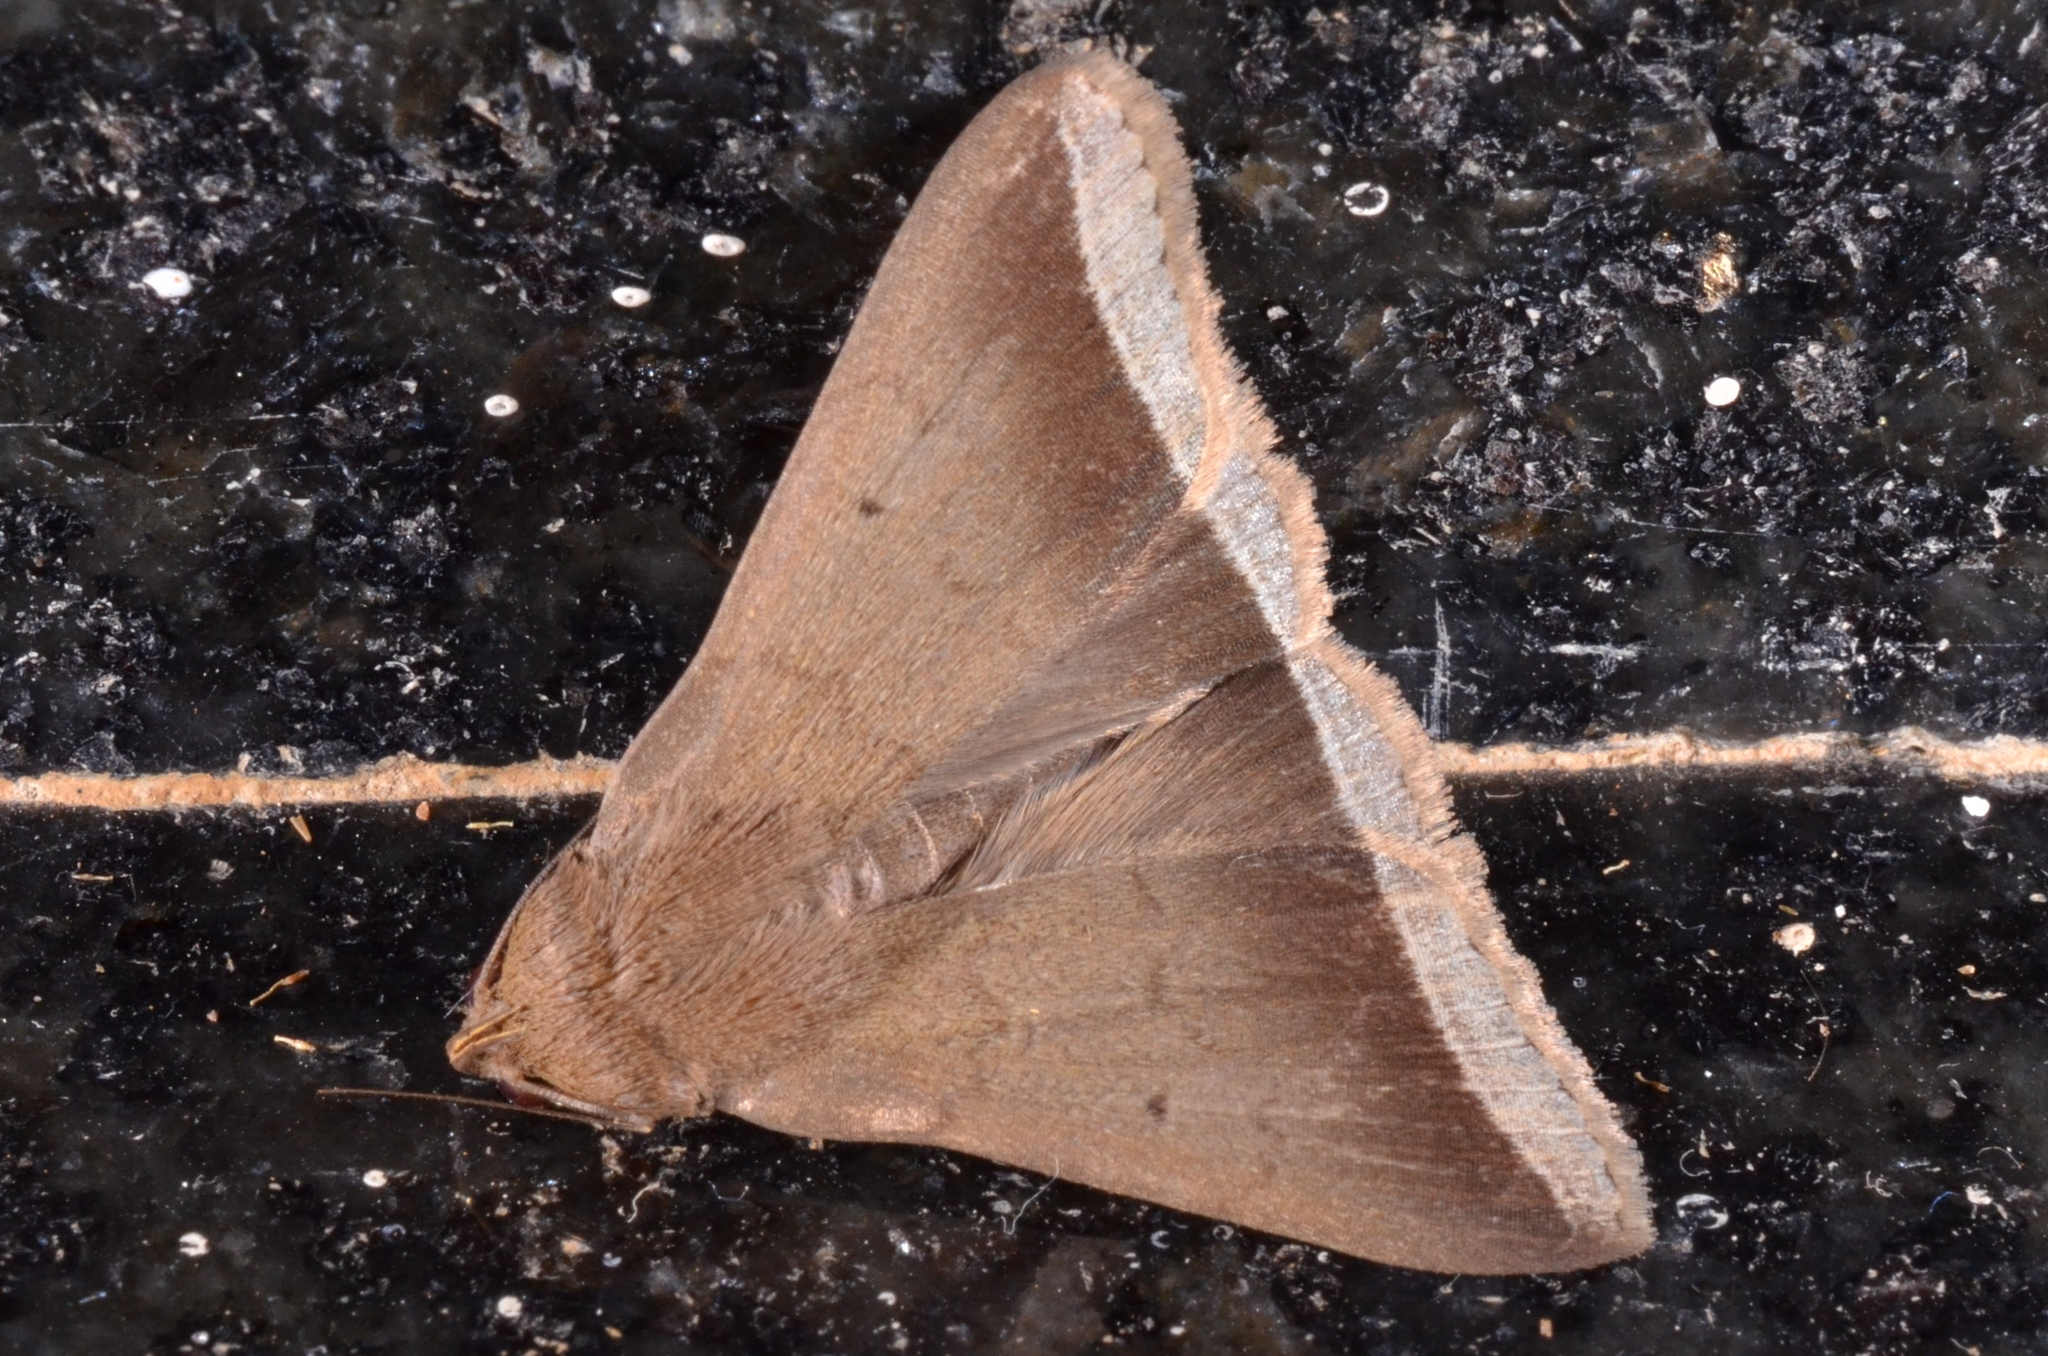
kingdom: Animalia
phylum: Arthropoda
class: Insecta
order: Lepidoptera
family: Erebidae
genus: Simplicia
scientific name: Simplicia bimarginata
